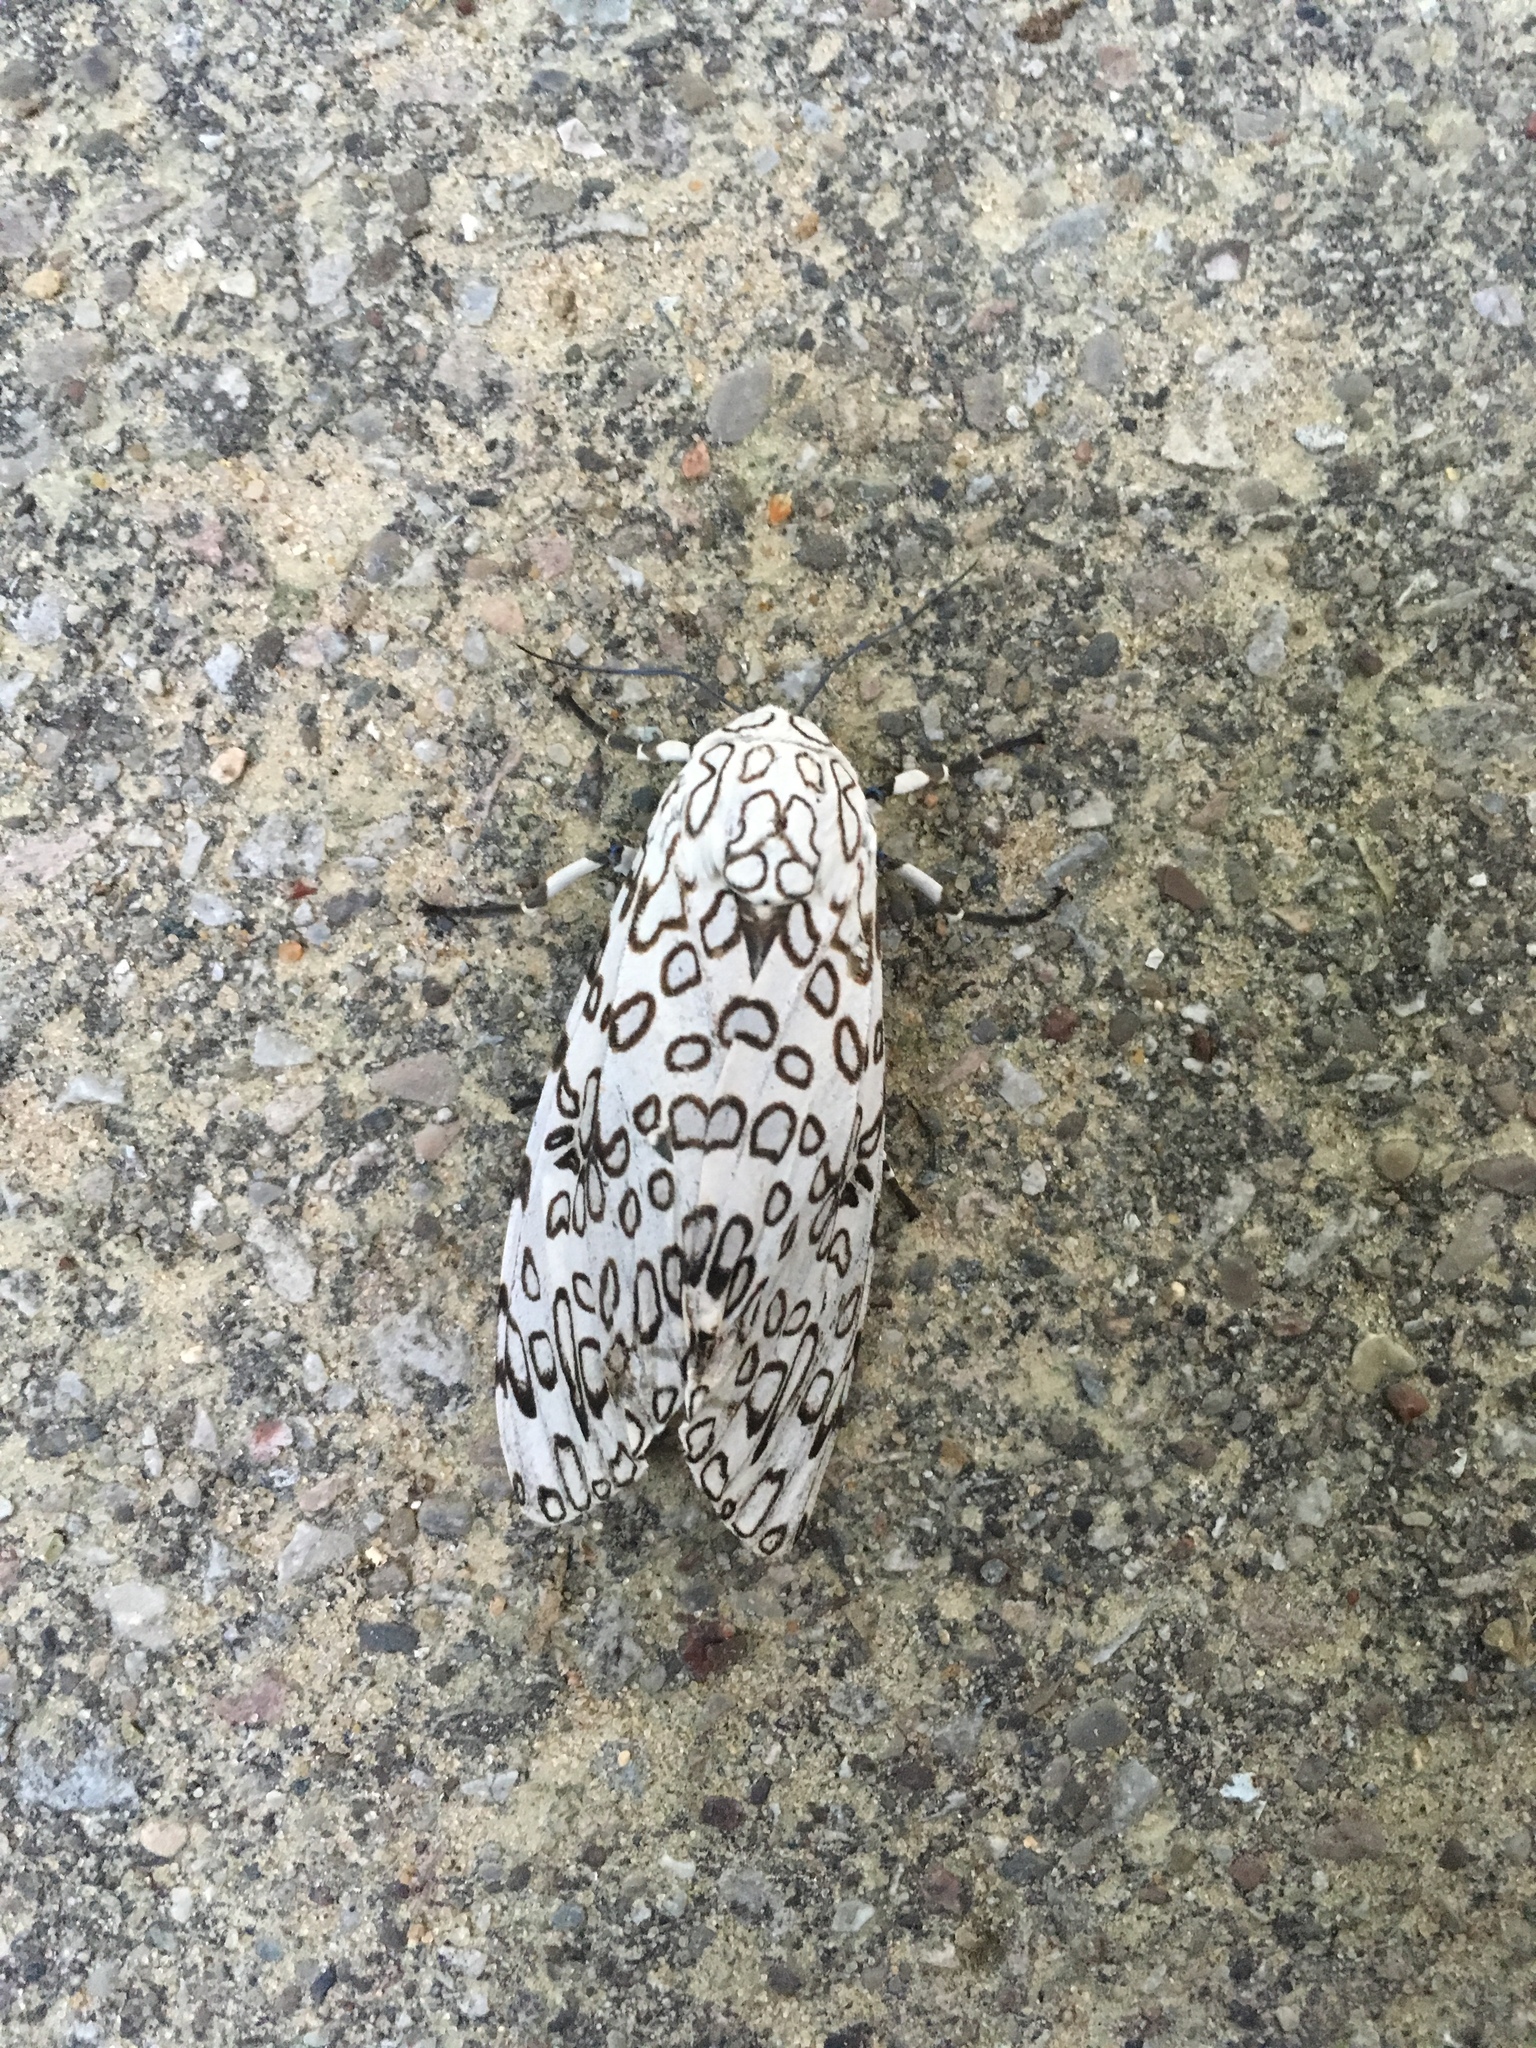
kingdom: Animalia
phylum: Arthropoda
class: Insecta
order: Lepidoptera
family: Erebidae
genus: Hypercompe
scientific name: Hypercompe scribonia
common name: Giant leopard moth
